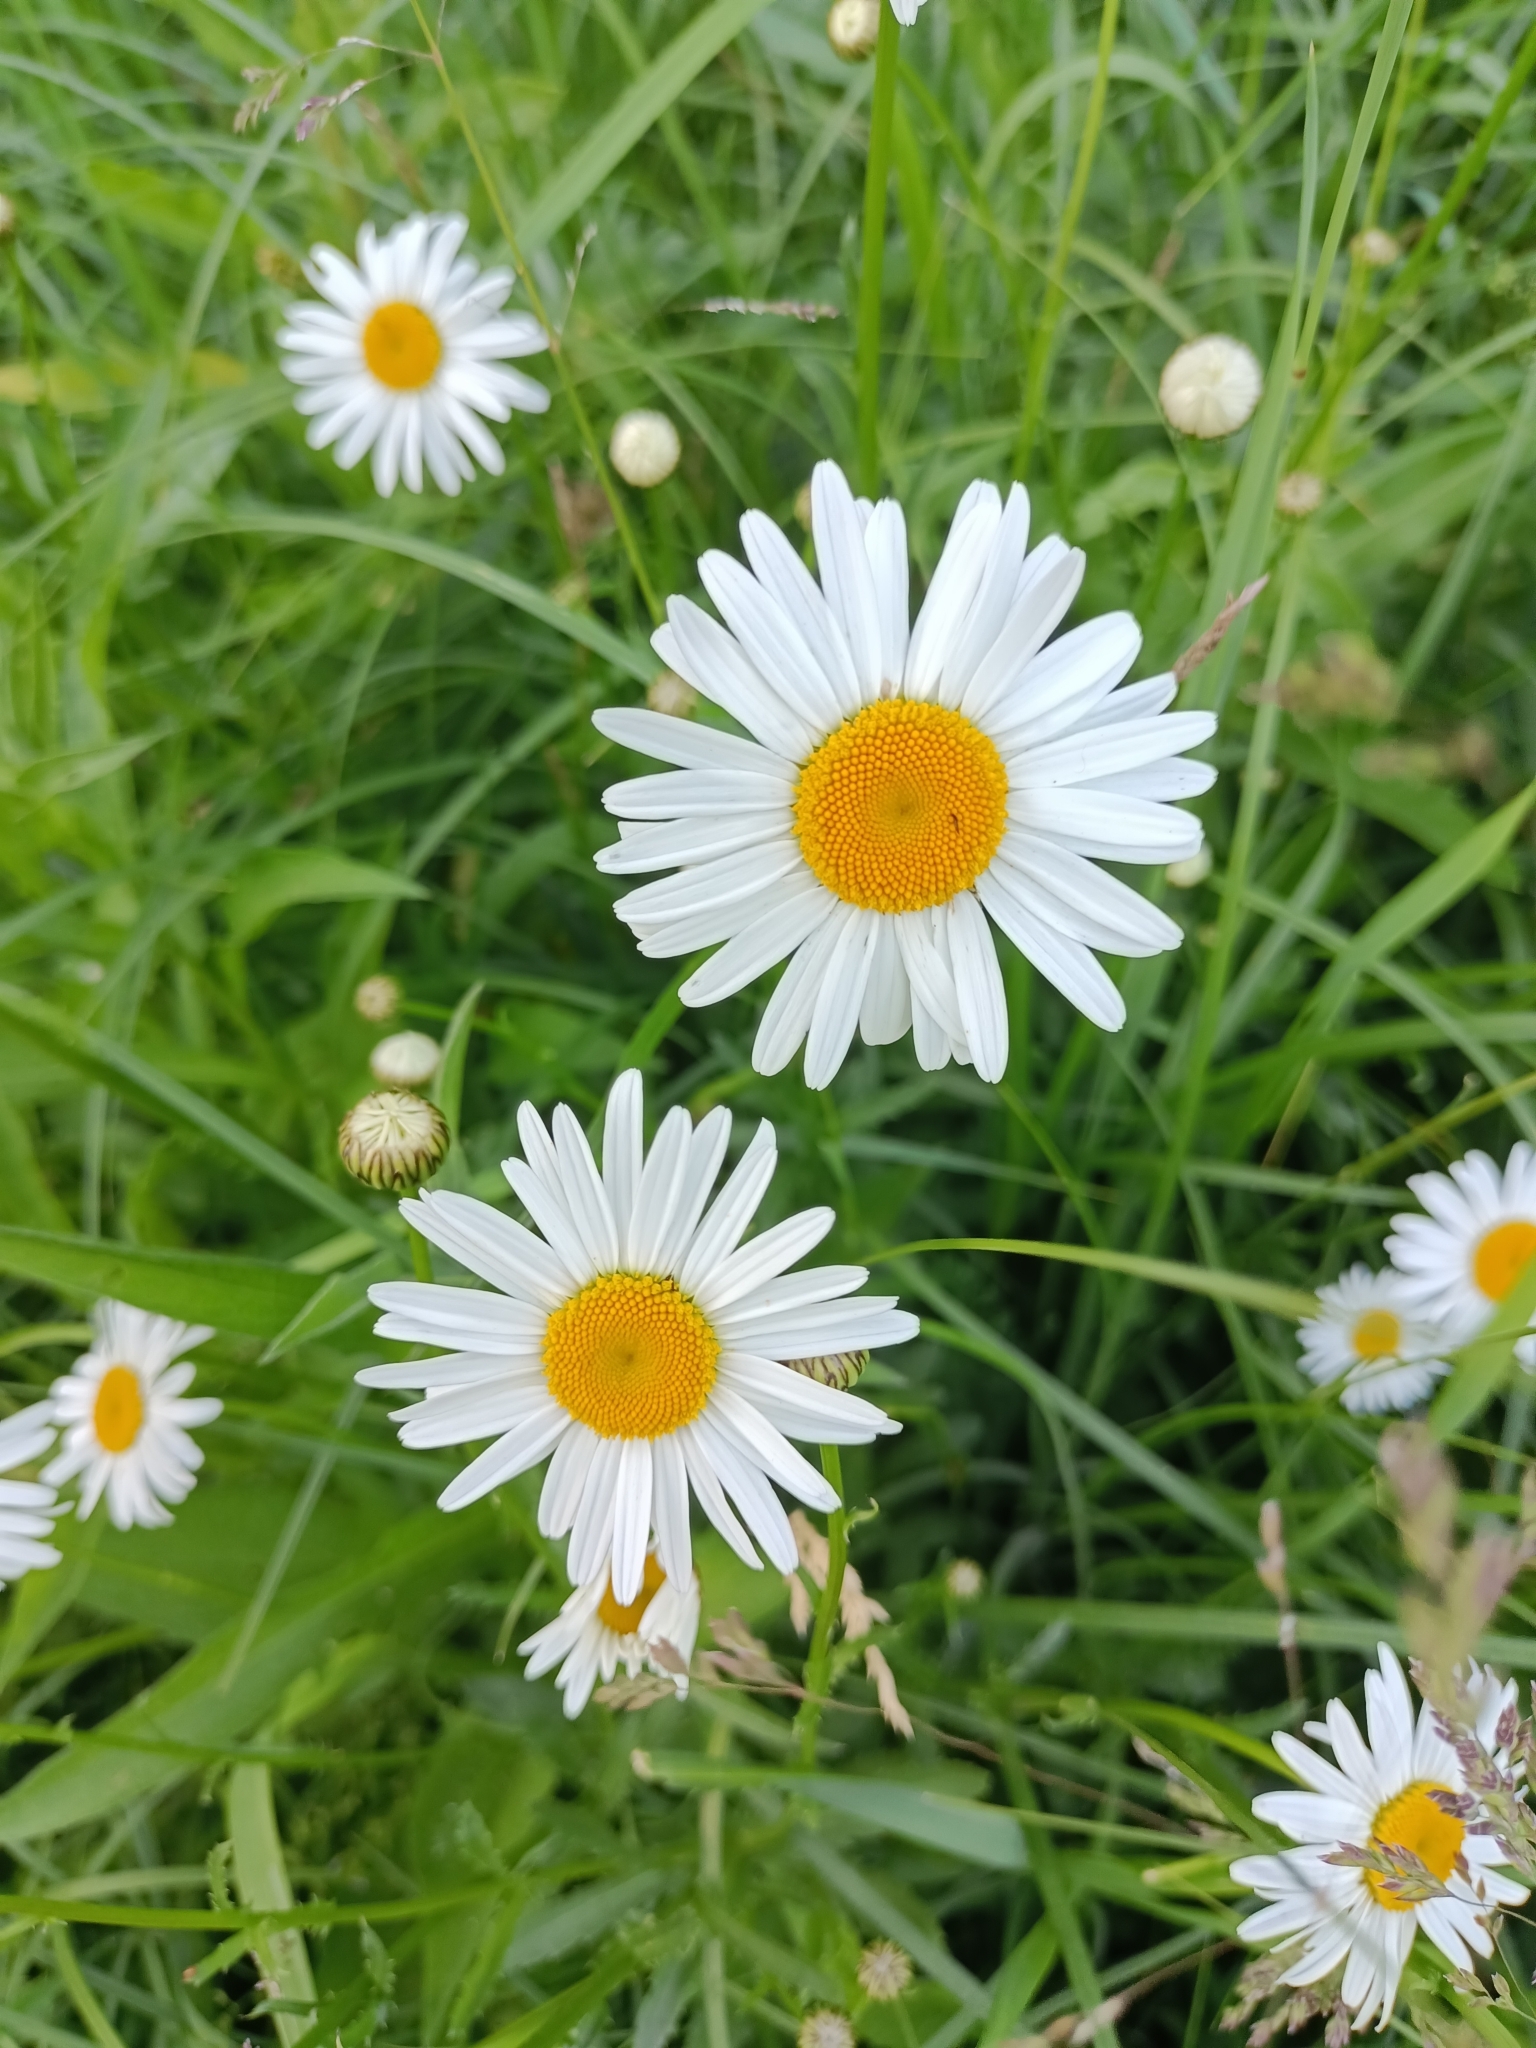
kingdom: Plantae
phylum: Tracheophyta
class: Magnoliopsida
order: Asterales
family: Asteraceae
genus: Leucanthemum
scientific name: Leucanthemum vulgare
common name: Oxeye daisy
